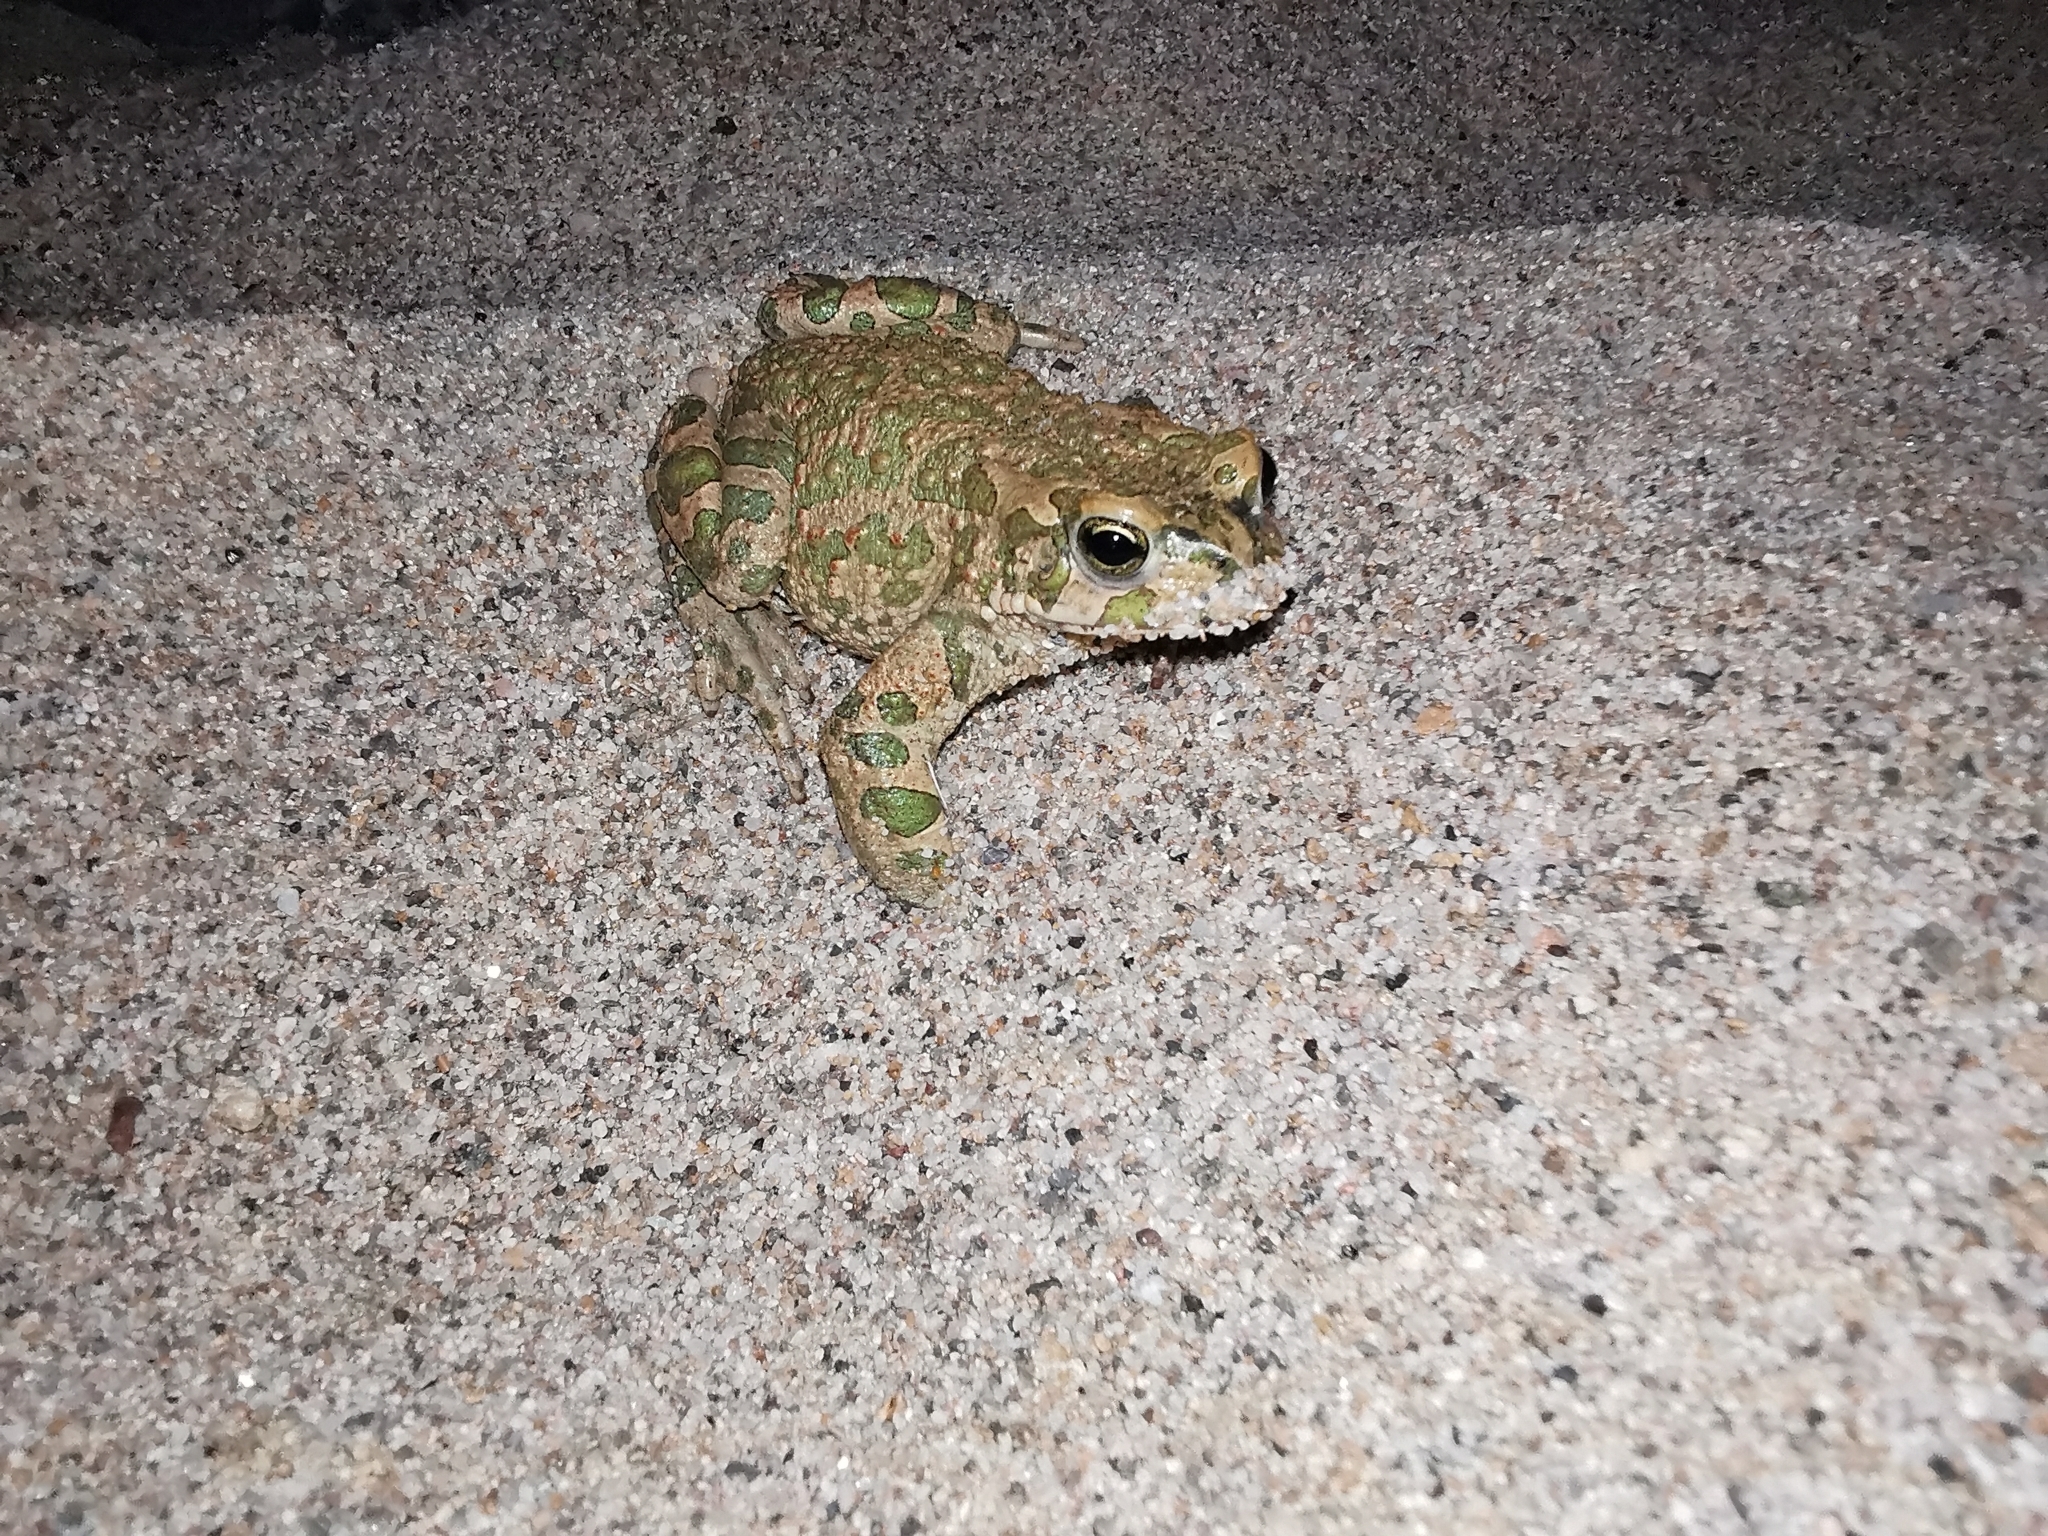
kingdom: Animalia
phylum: Chordata
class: Amphibia
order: Anura
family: Bufonidae
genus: Bufotes
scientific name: Bufotes viridis
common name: European green toad
